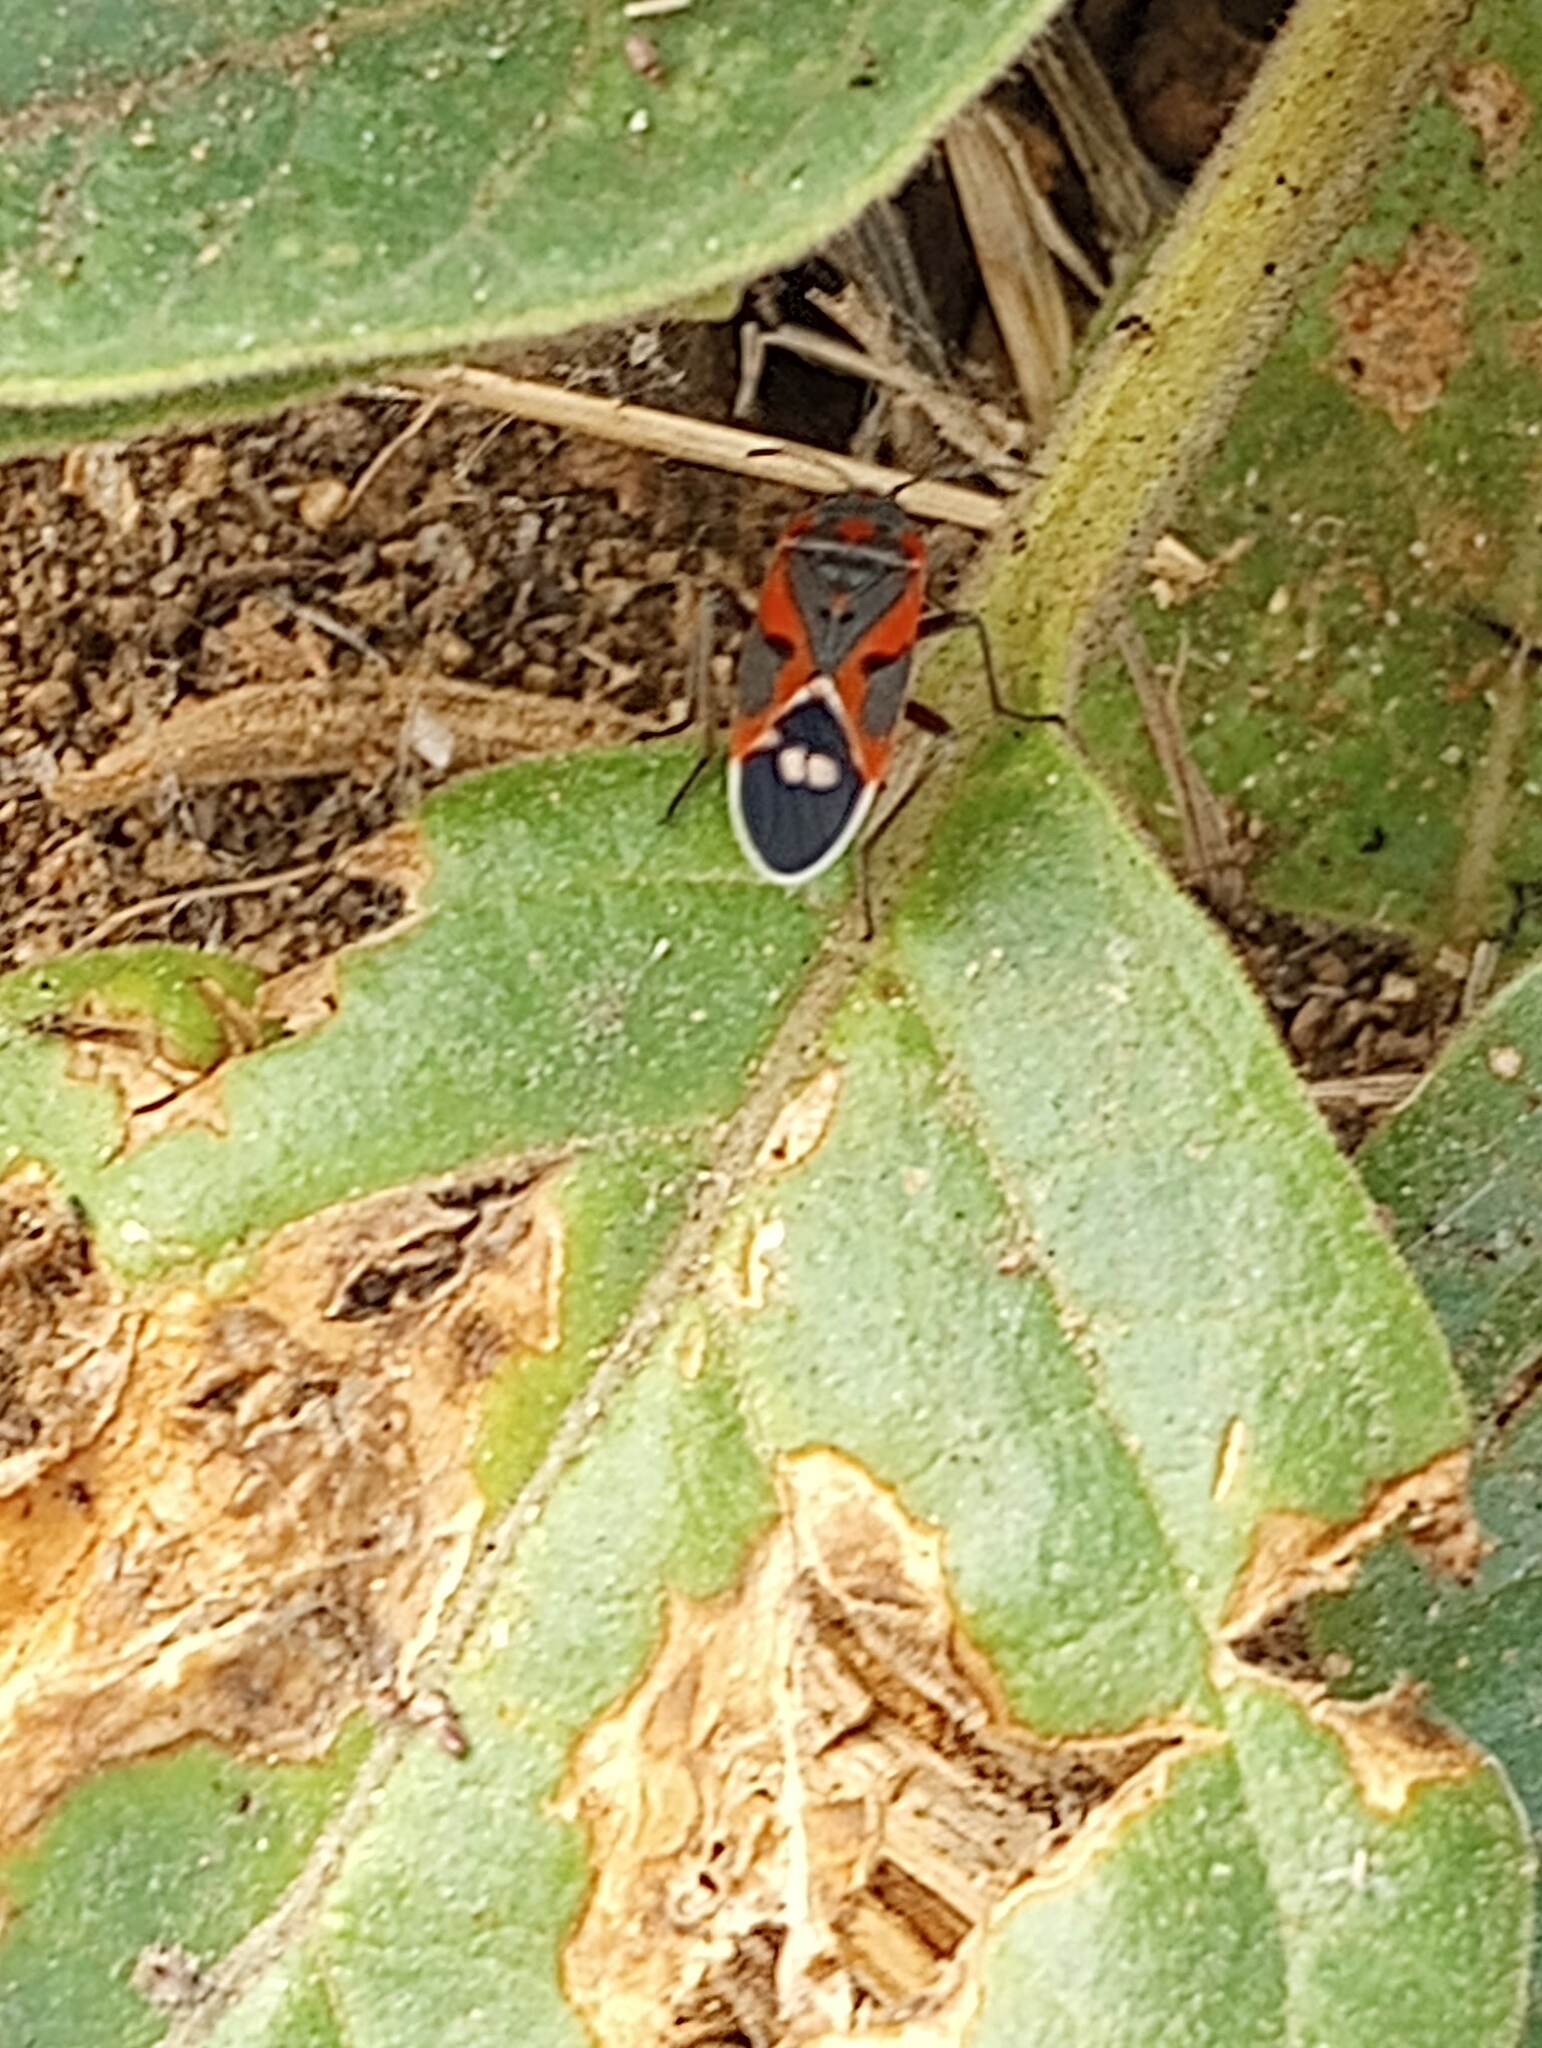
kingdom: Animalia
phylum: Arthropoda
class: Insecta
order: Hemiptera
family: Lygaeidae
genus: Lygaeus
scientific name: Lygaeus kalmii
